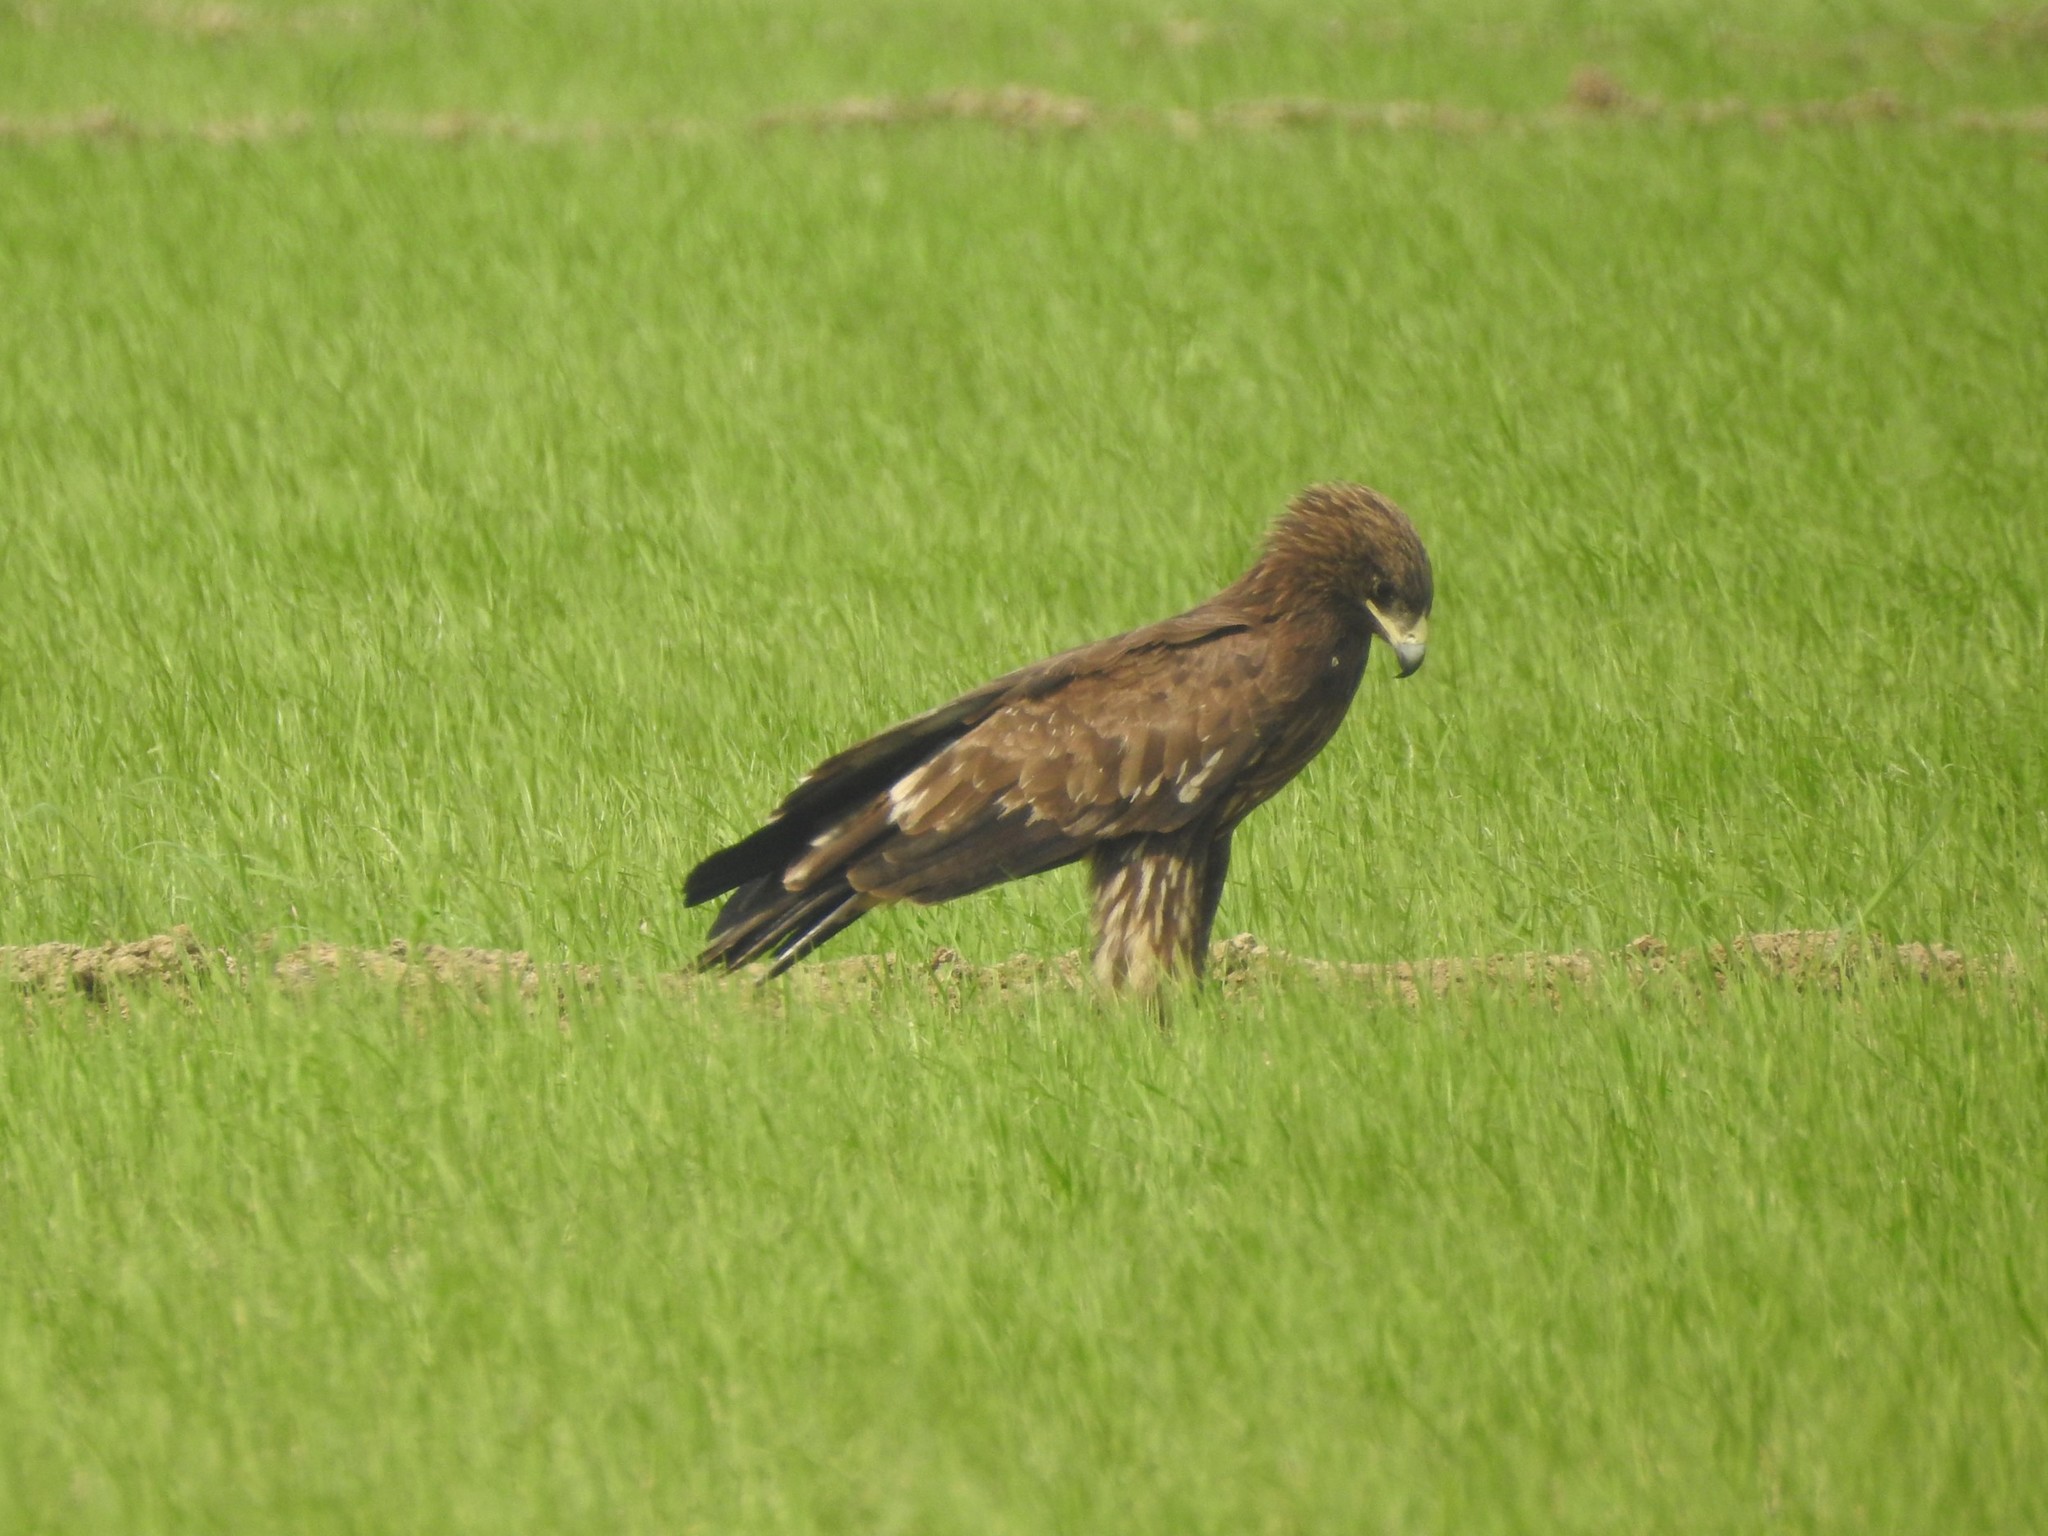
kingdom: Animalia
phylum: Chordata
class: Aves
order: Accipitriformes
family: Accipitridae
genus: Aquila
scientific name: Aquila hastata
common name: Indian spotted eagle
